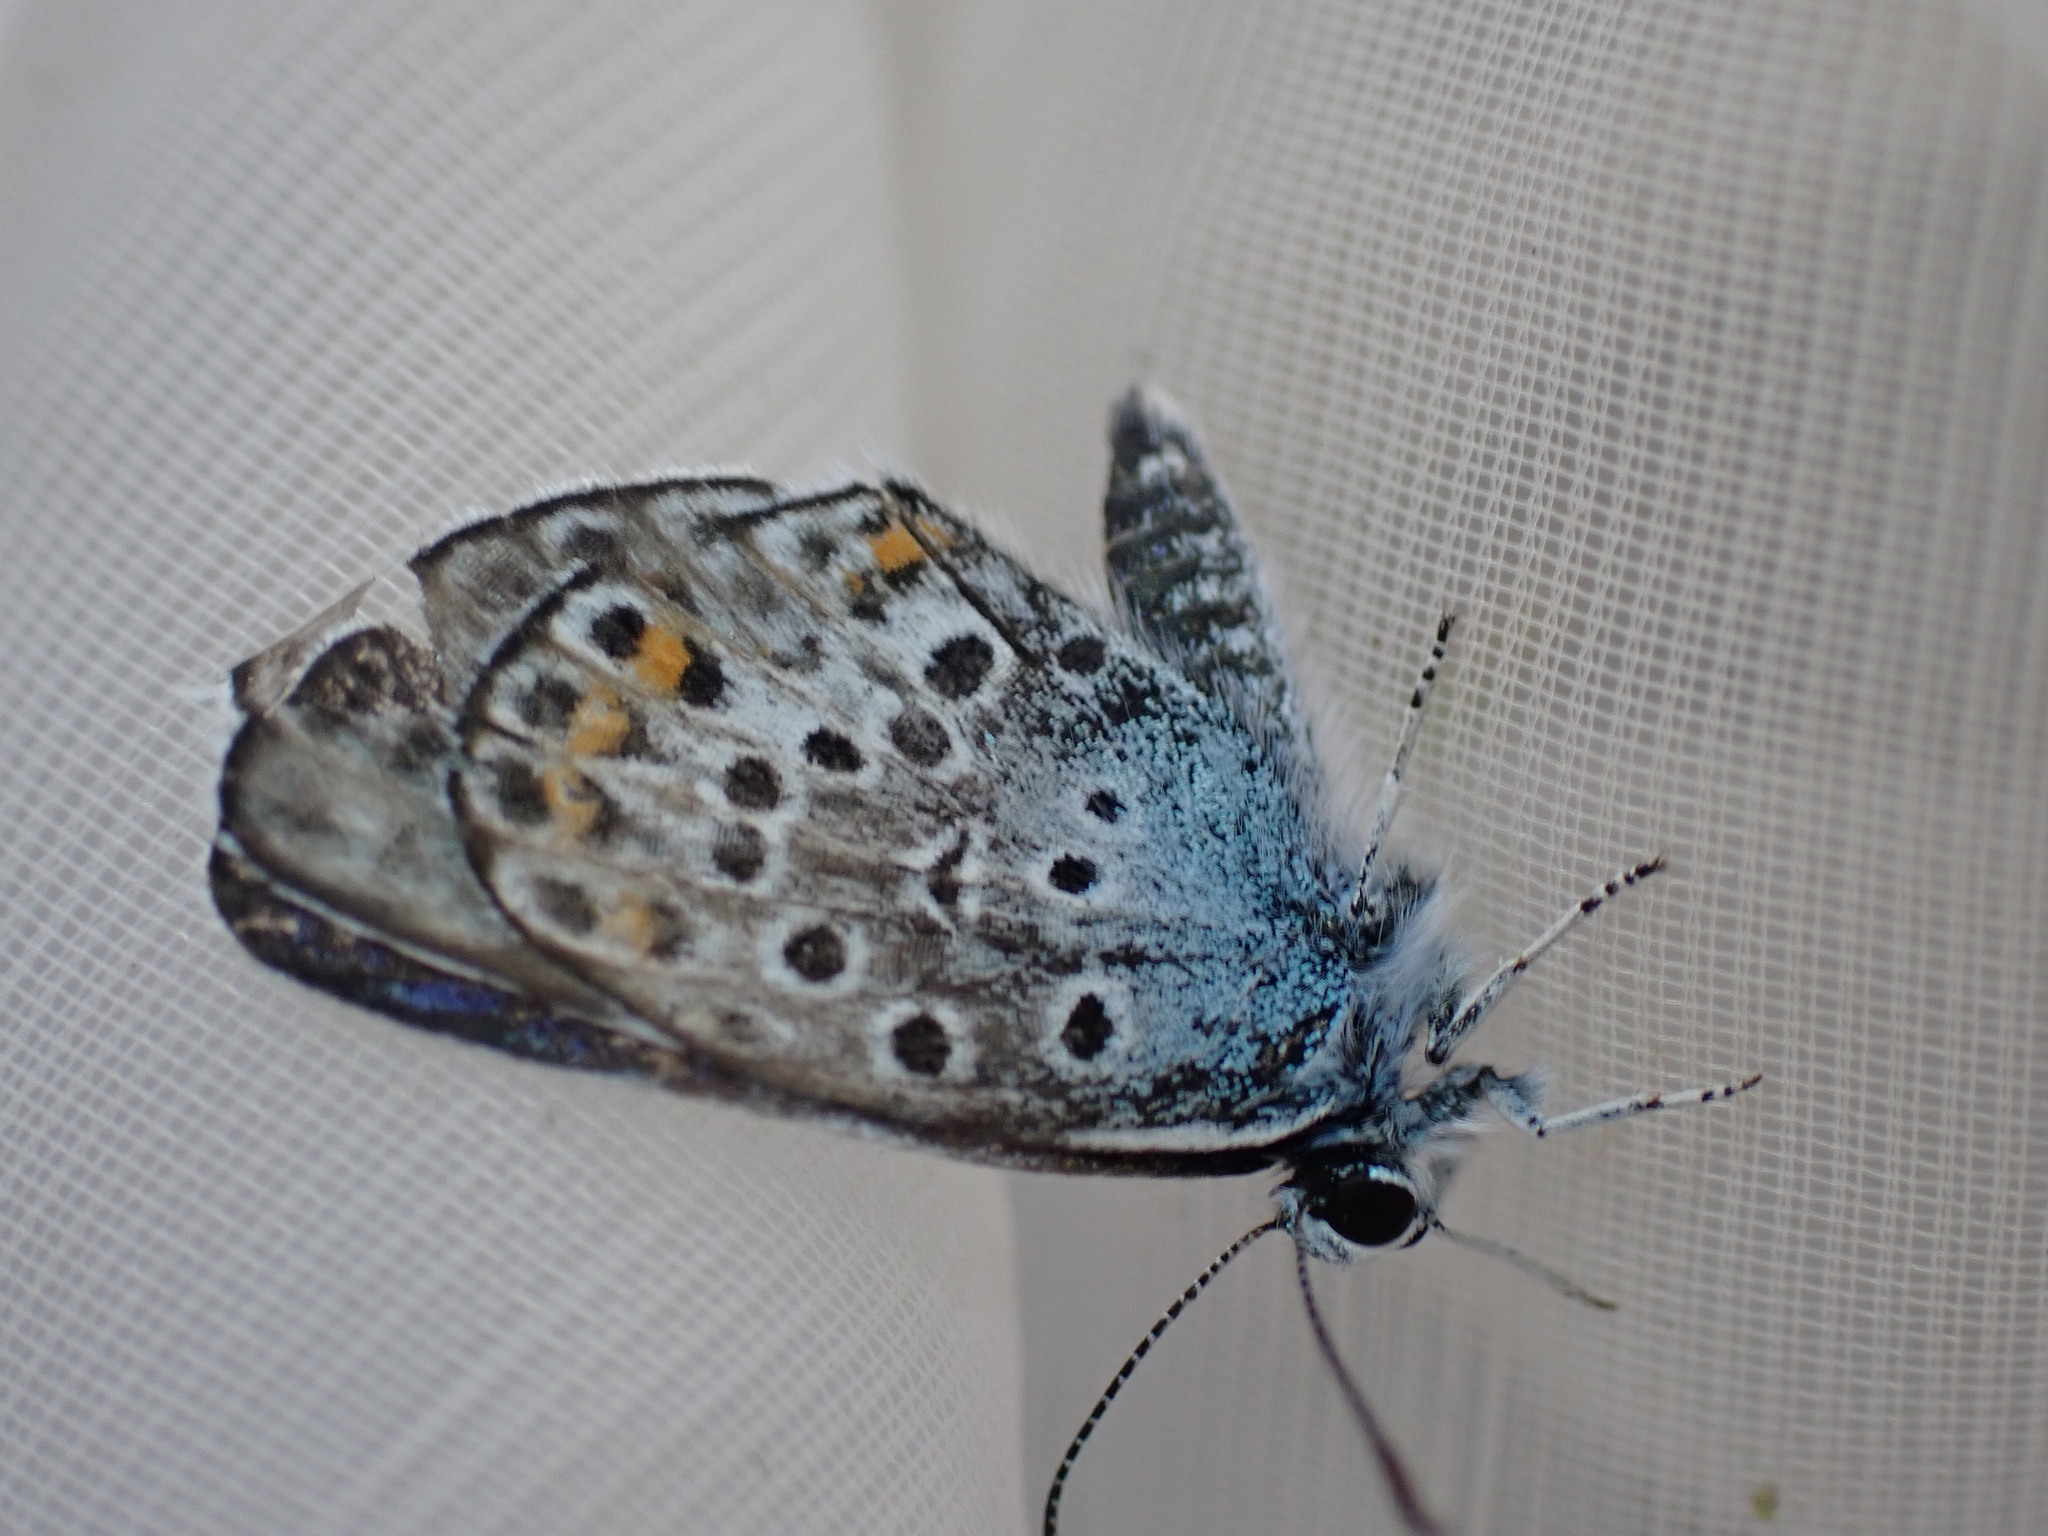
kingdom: Animalia
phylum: Arthropoda
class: Insecta
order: Lepidoptera
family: Lycaenidae
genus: Plebejus
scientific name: Plebejus argus
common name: Silver-studded blue
